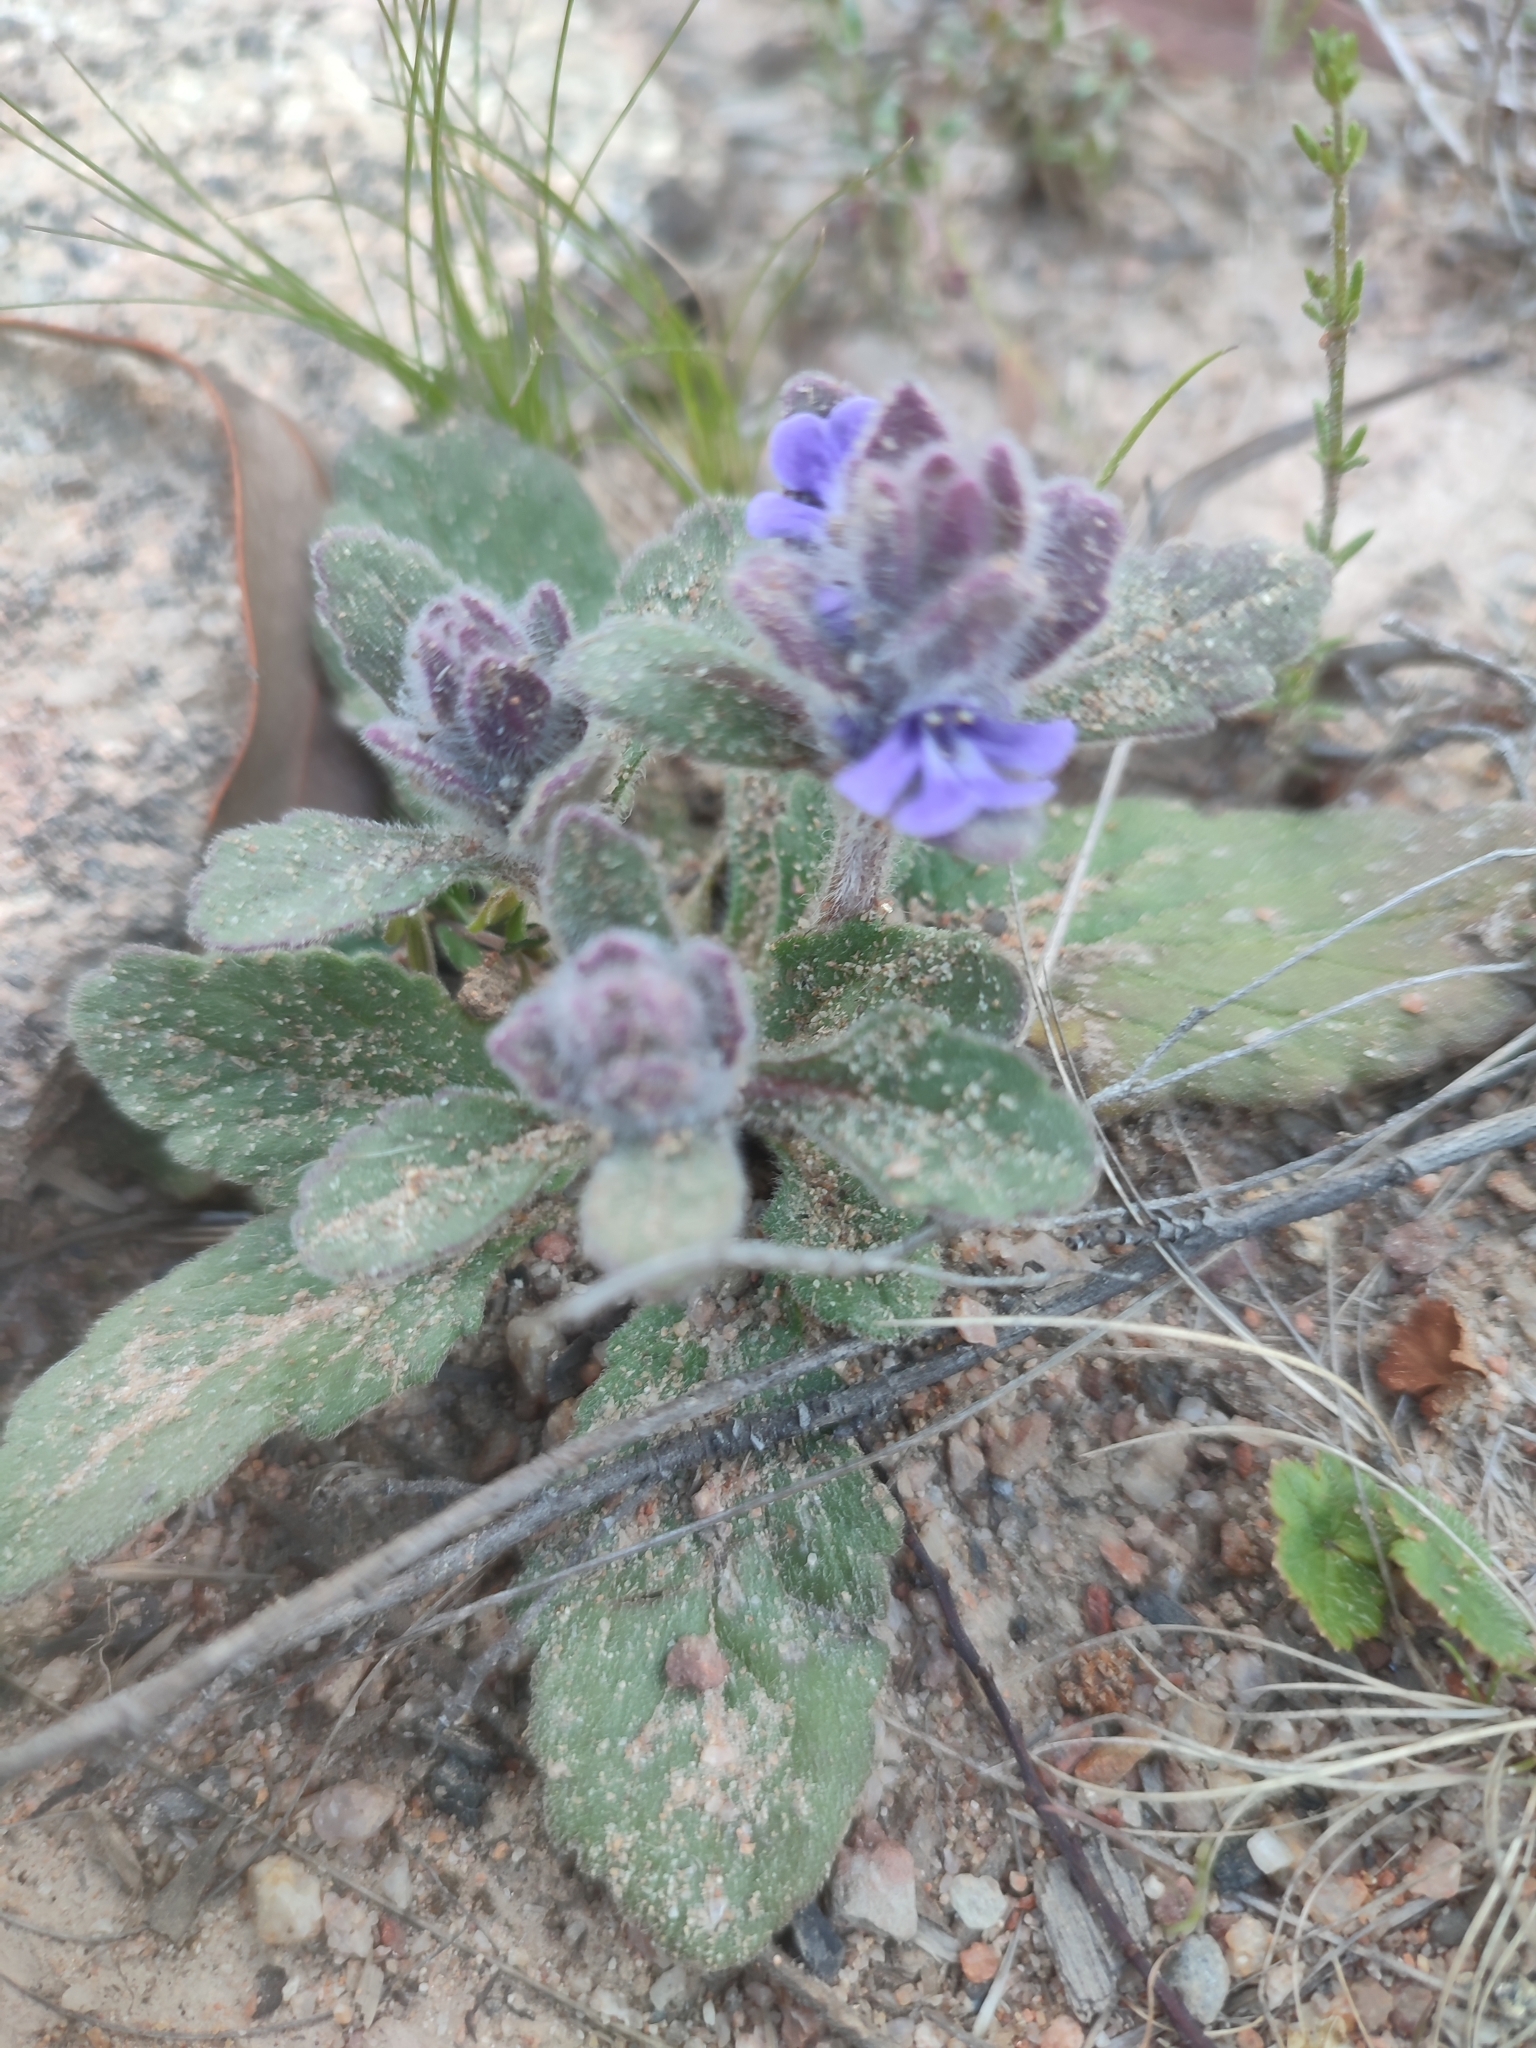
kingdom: Plantae
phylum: Tracheophyta
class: Magnoliopsida
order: Lamiales
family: Lamiaceae
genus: Ajuga
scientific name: Ajuga australis
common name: Australian bugle
